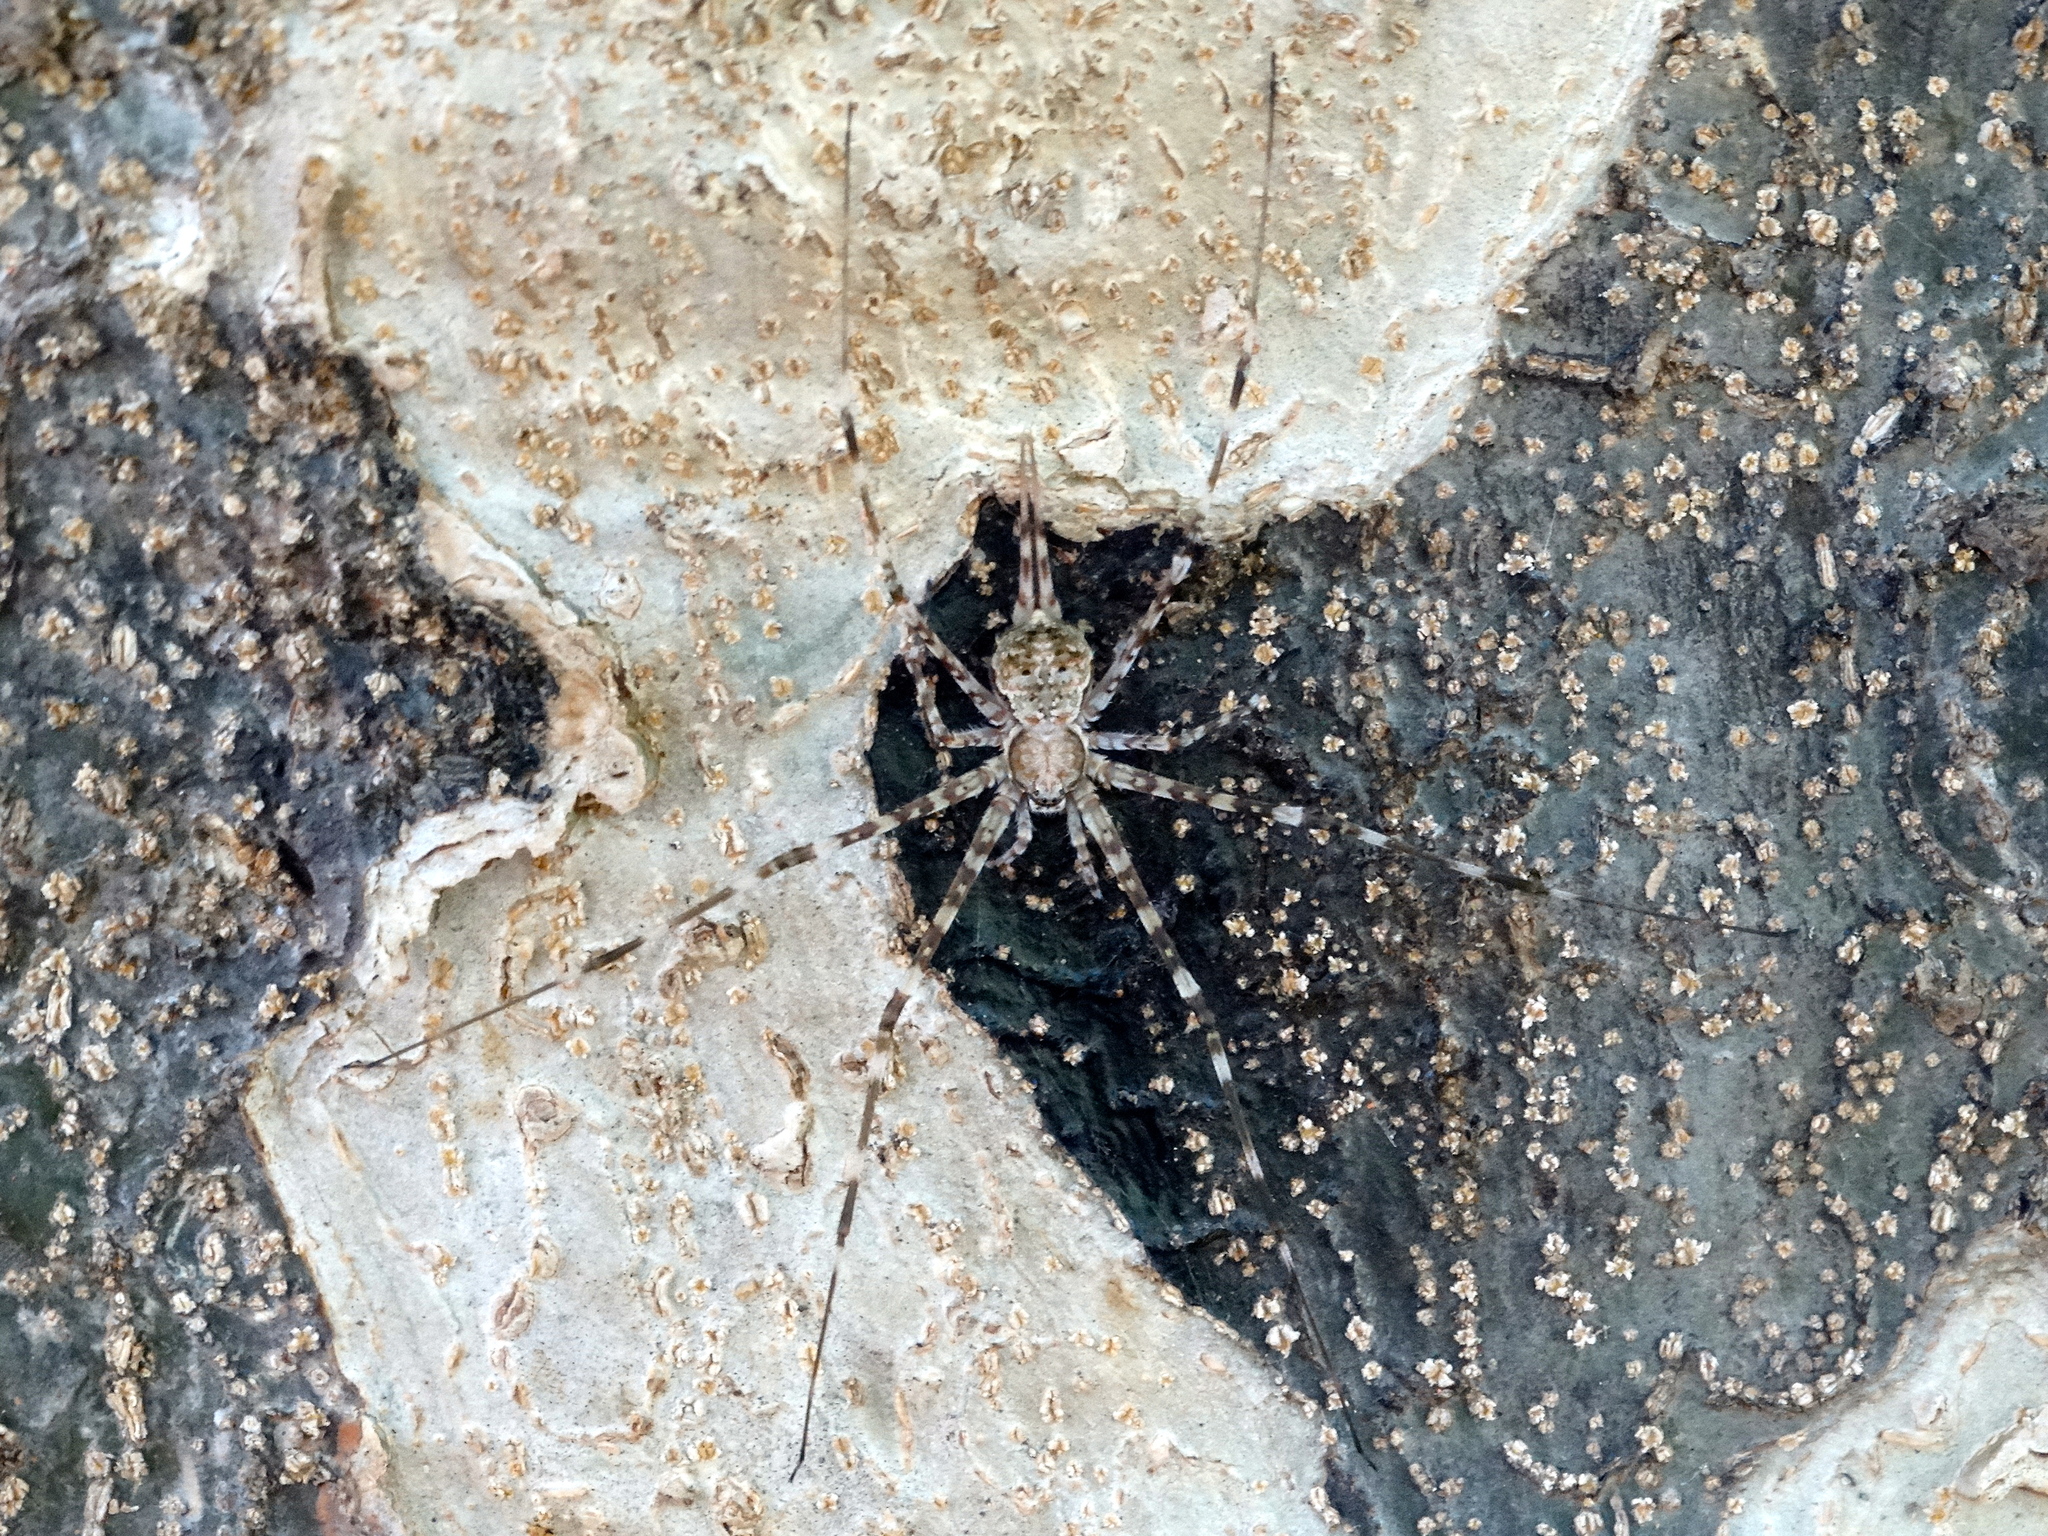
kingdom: Animalia
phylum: Arthropoda
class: Arachnida
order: Araneae
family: Hersiliidae
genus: Neotama
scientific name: Neotama mexicana
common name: Tree trunk spiders
